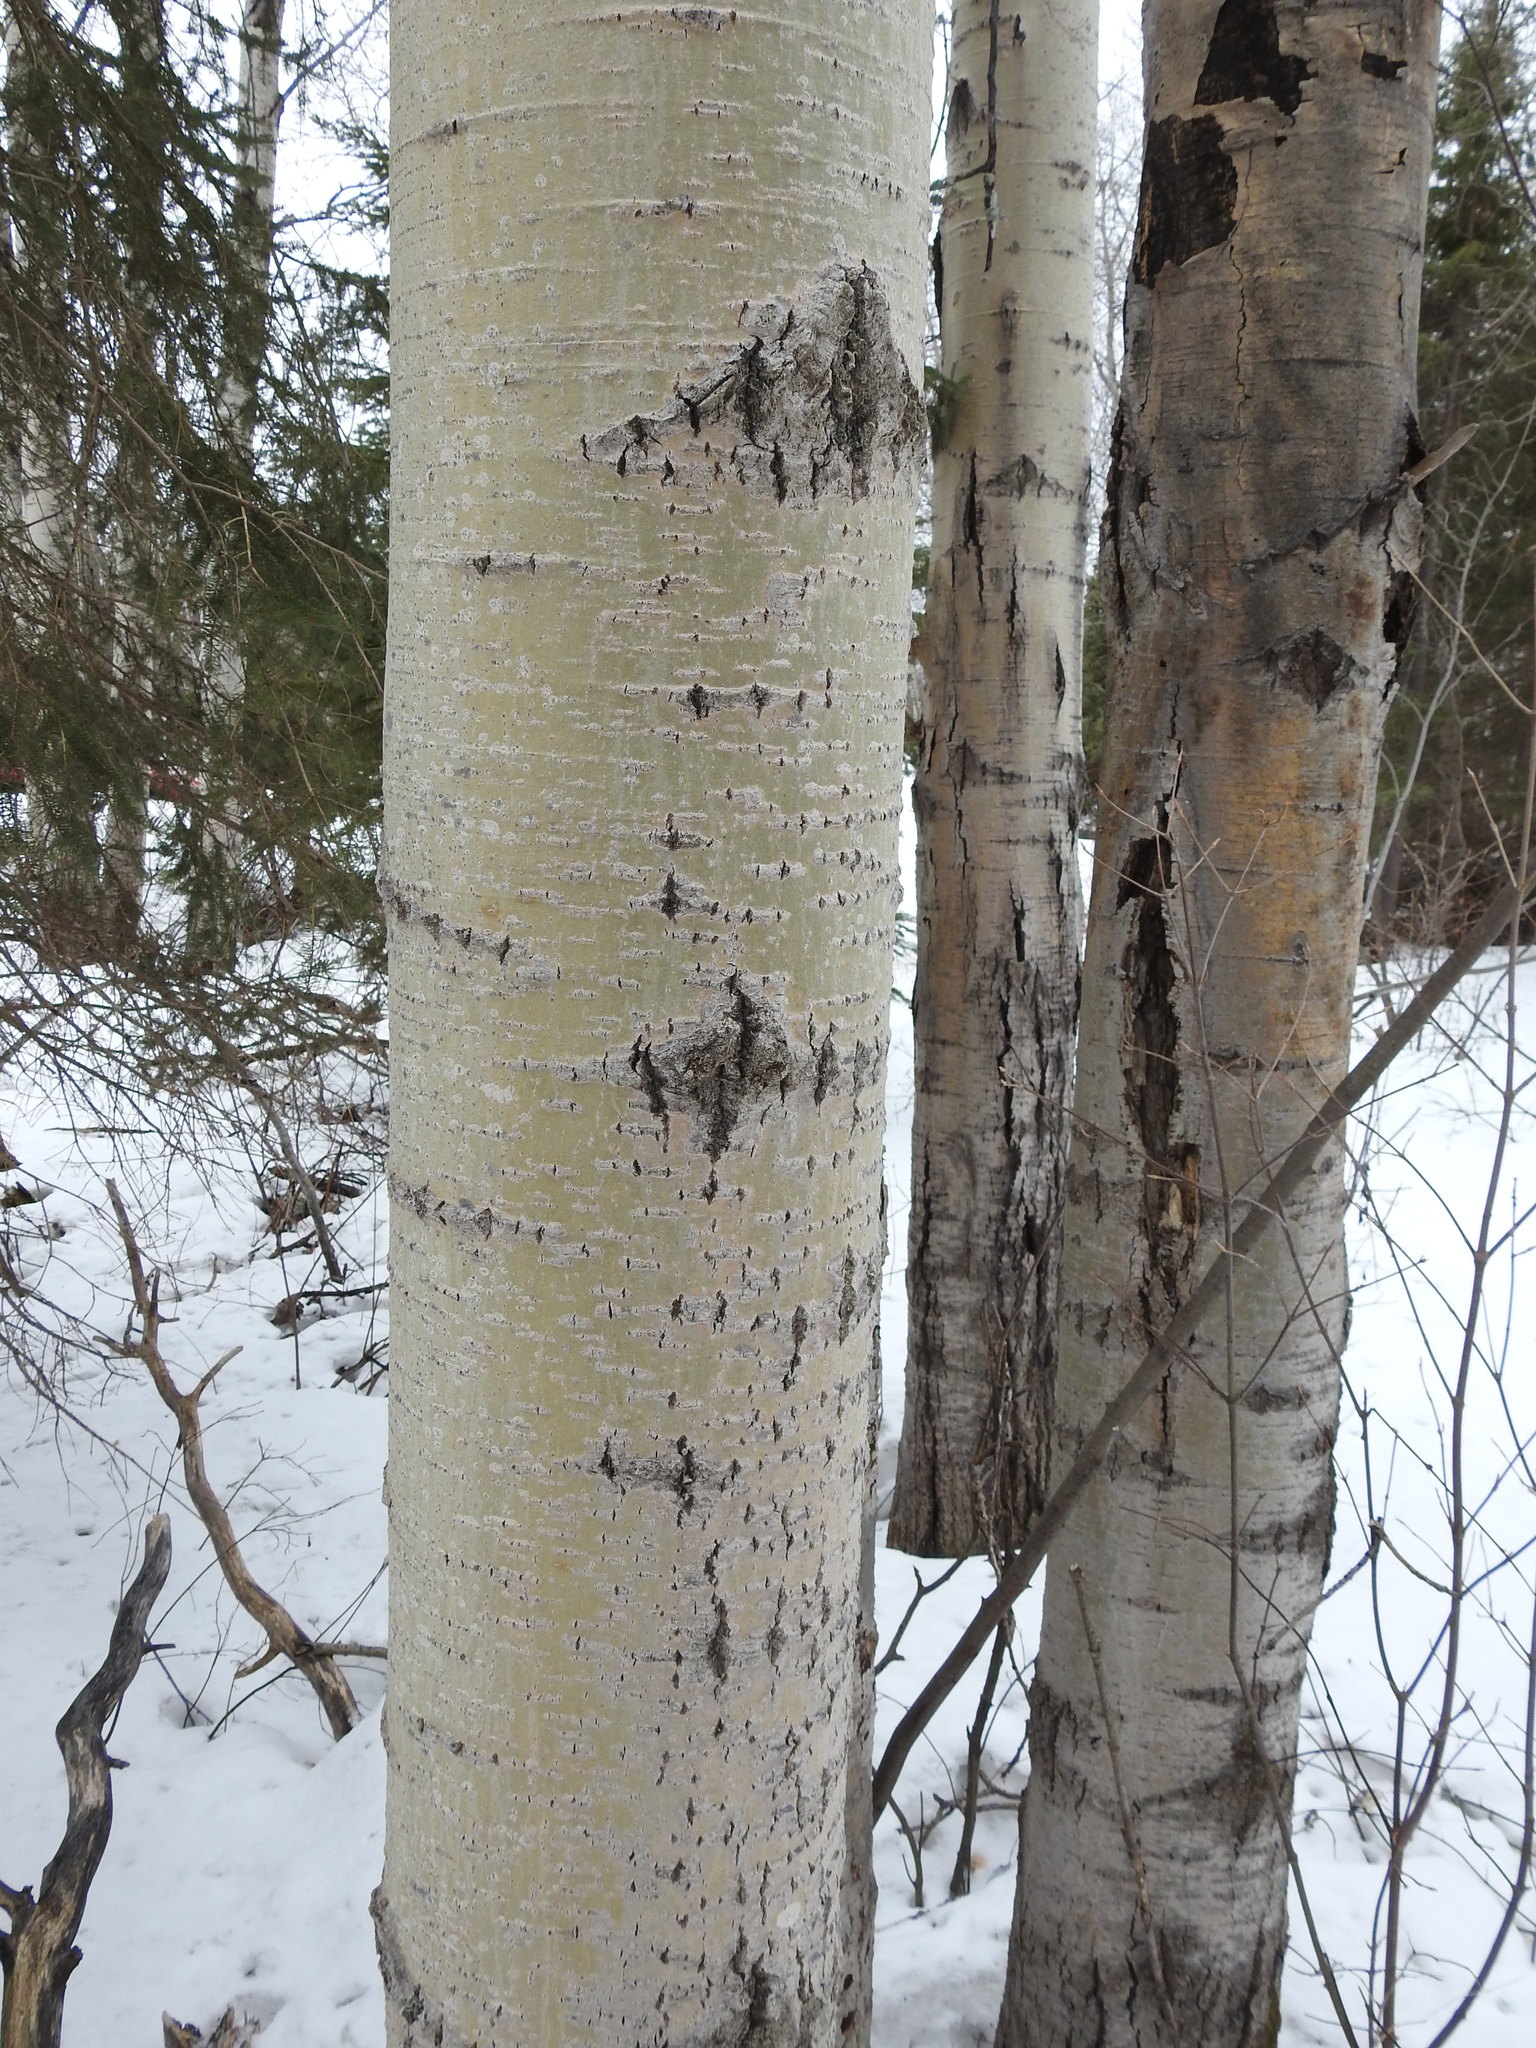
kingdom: Plantae
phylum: Tracheophyta
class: Magnoliopsida
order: Malpighiales
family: Salicaceae
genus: Populus
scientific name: Populus tremuloides
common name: Quaking aspen
